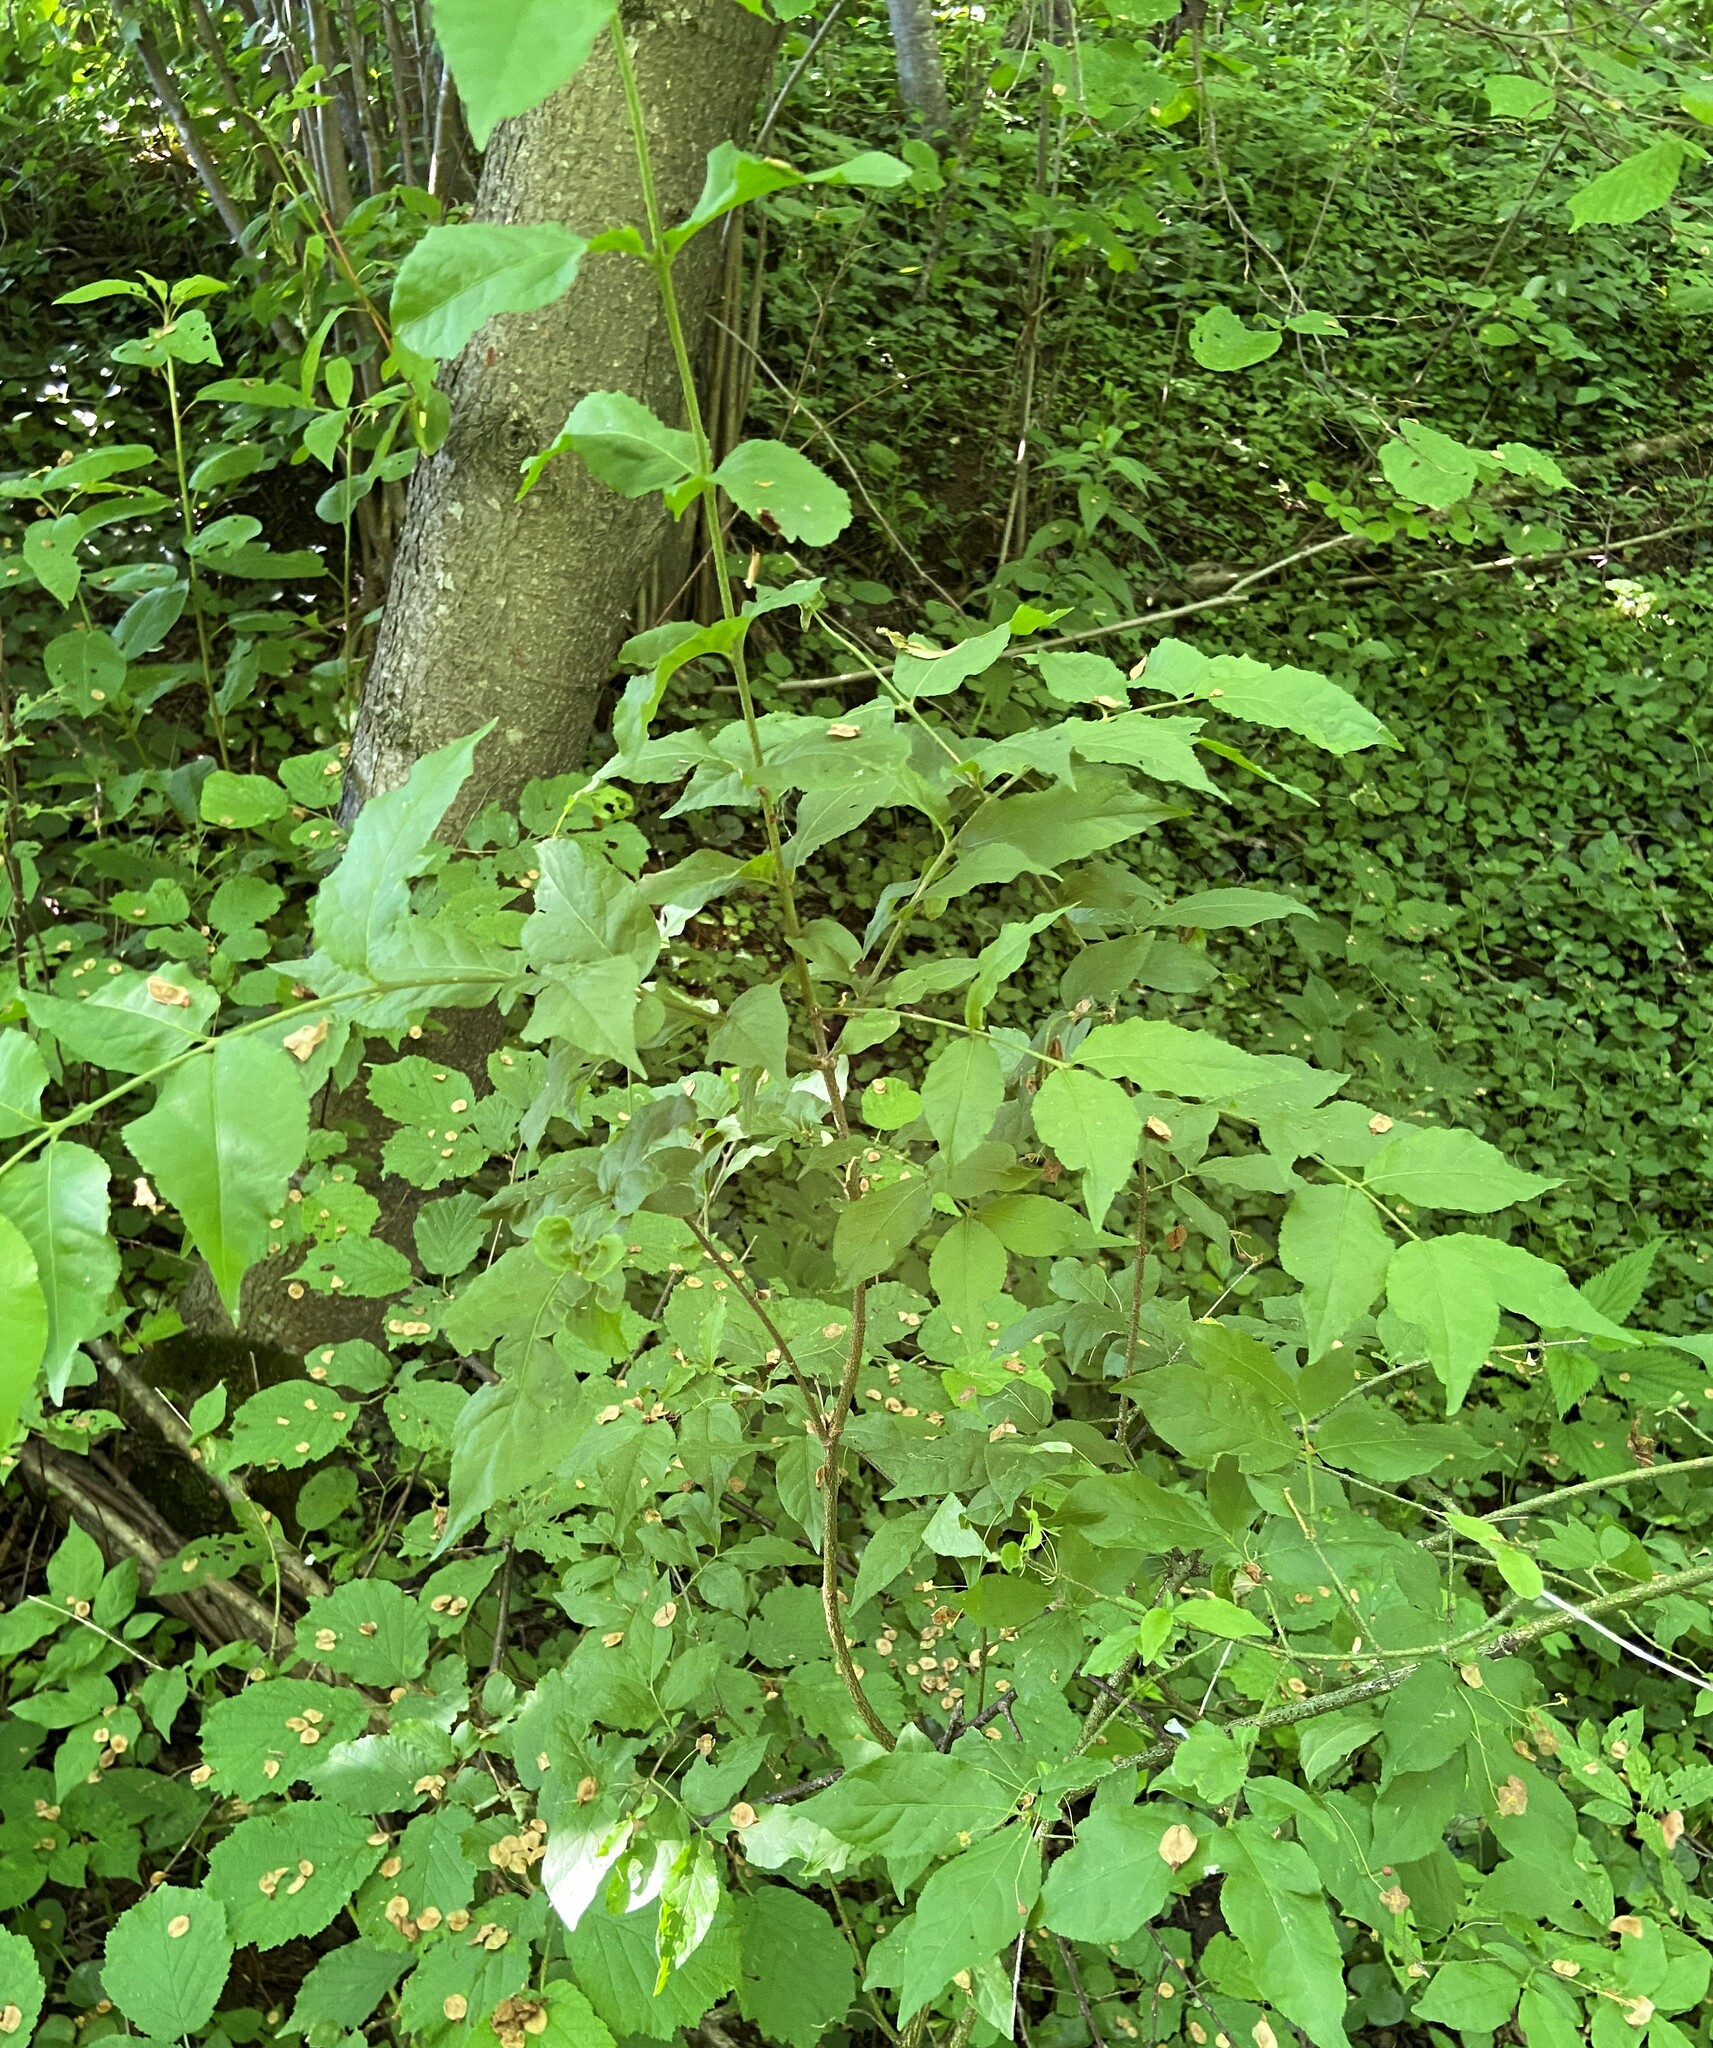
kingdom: Plantae
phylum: Tracheophyta
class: Magnoliopsida
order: Celastrales
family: Celastraceae
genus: Euonymus
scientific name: Euonymus verrucosus
